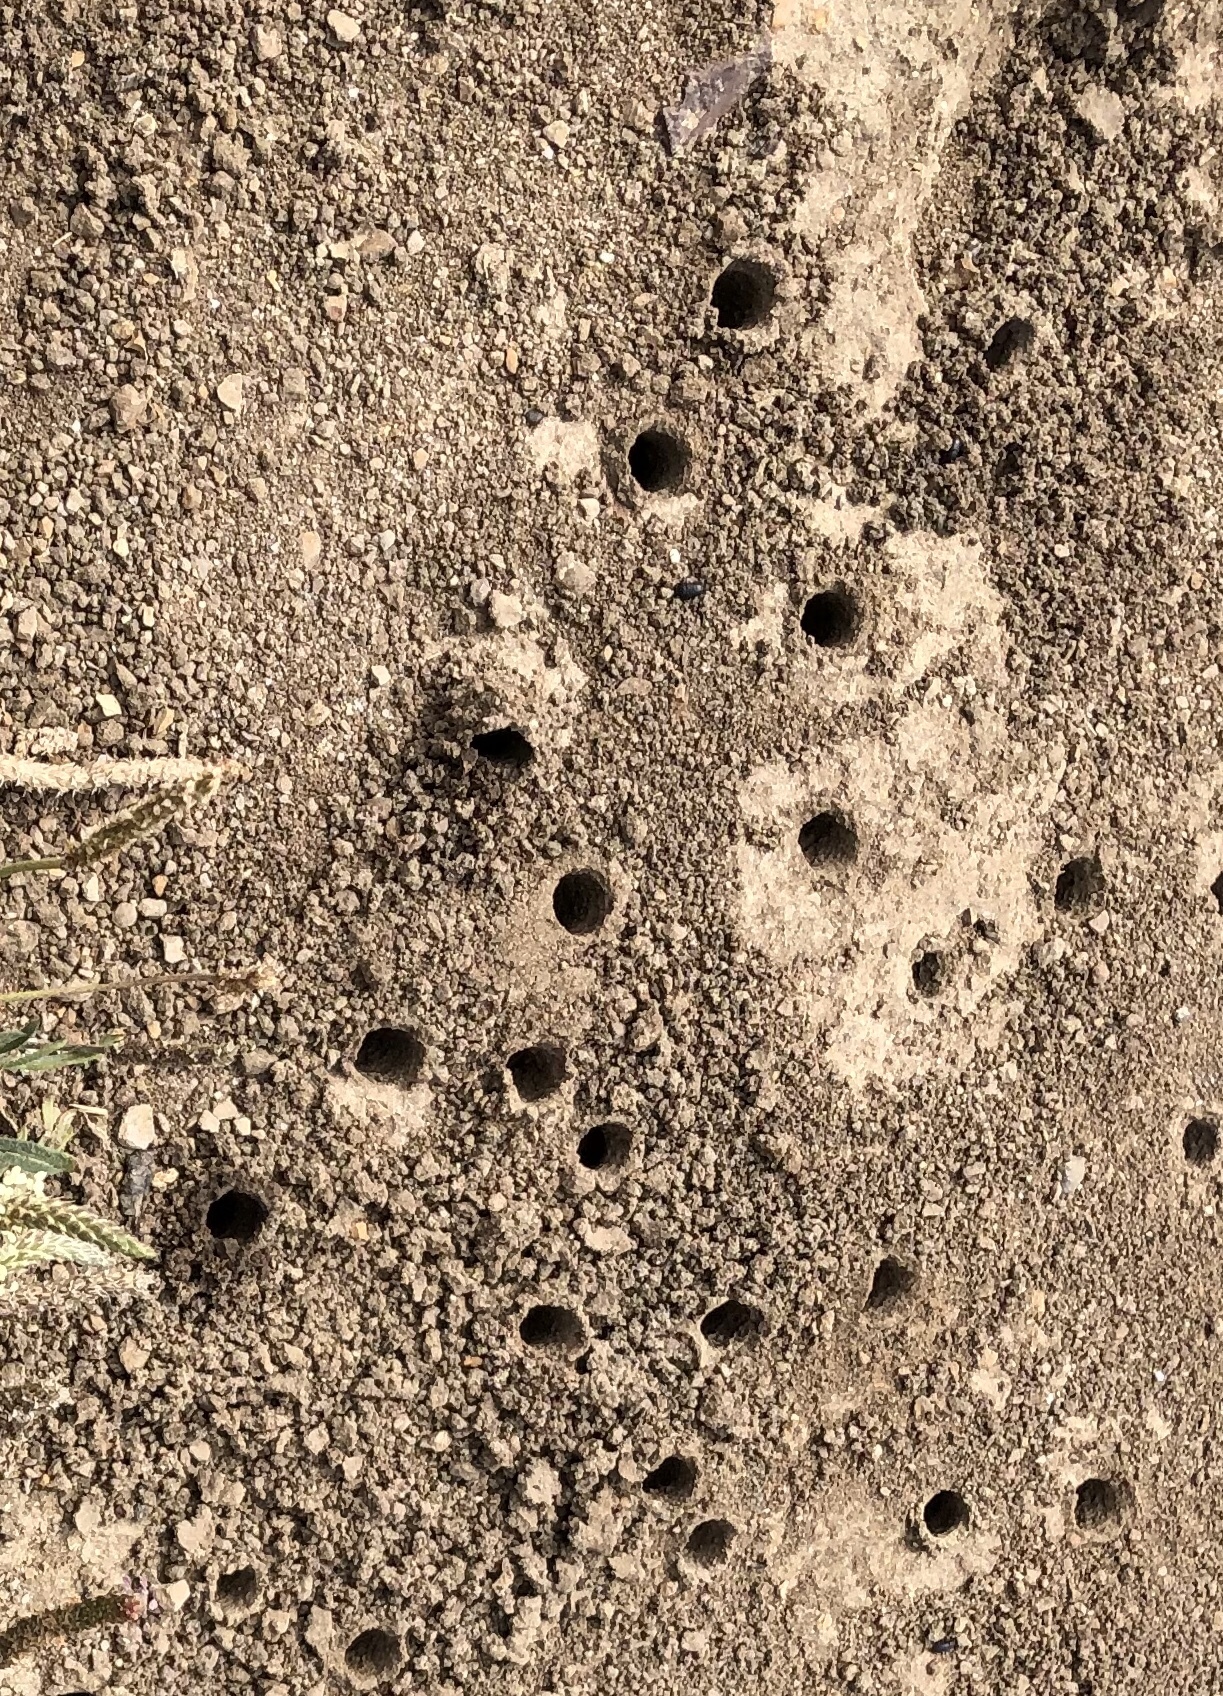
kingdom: Animalia
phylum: Arthropoda
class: Insecta
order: Hymenoptera
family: Apidae
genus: Anthophora
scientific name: Anthophora bomboides
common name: Bumble-bee-mimic digger bee
